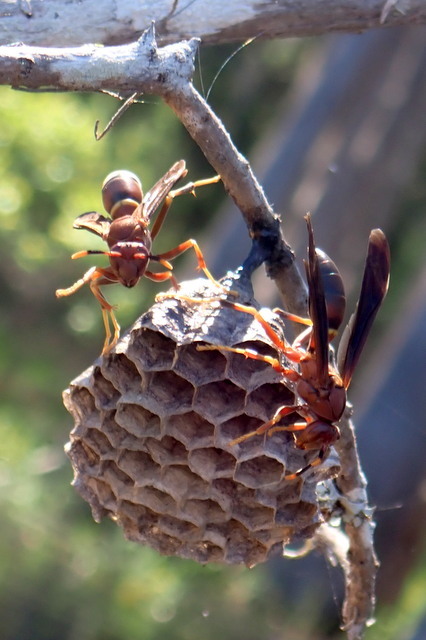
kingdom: Animalia
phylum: Arthropoda
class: Insecta
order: Hymenoptera
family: Eumenidae
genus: Polistes
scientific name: Polistes annularis
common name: Ringed paper wasp
